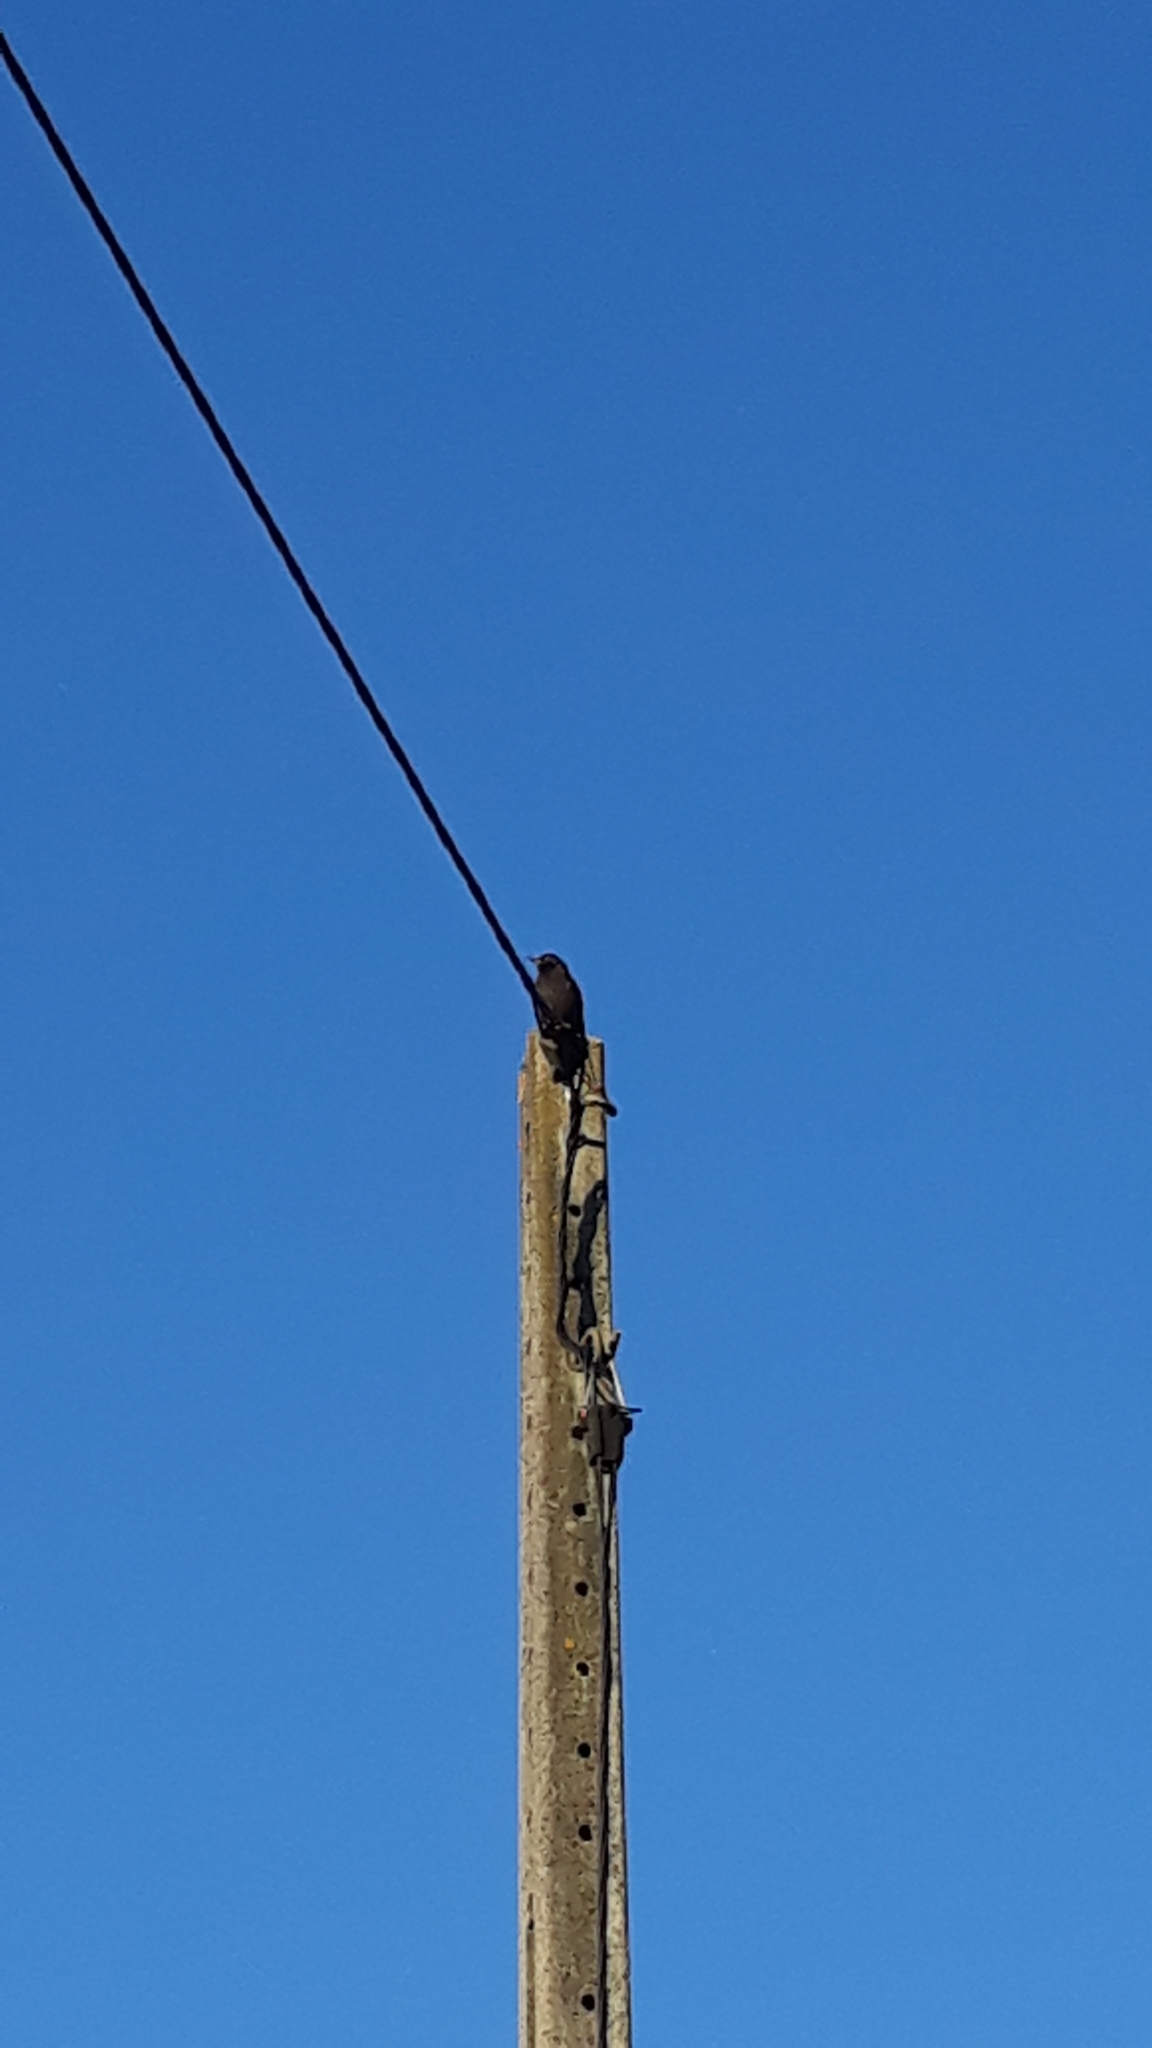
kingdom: Animalia
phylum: Chordata
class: Aves
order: Passeriformes
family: Sturnidae
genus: Sturnus
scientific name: Sturnus unicolor
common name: Spotless starling
